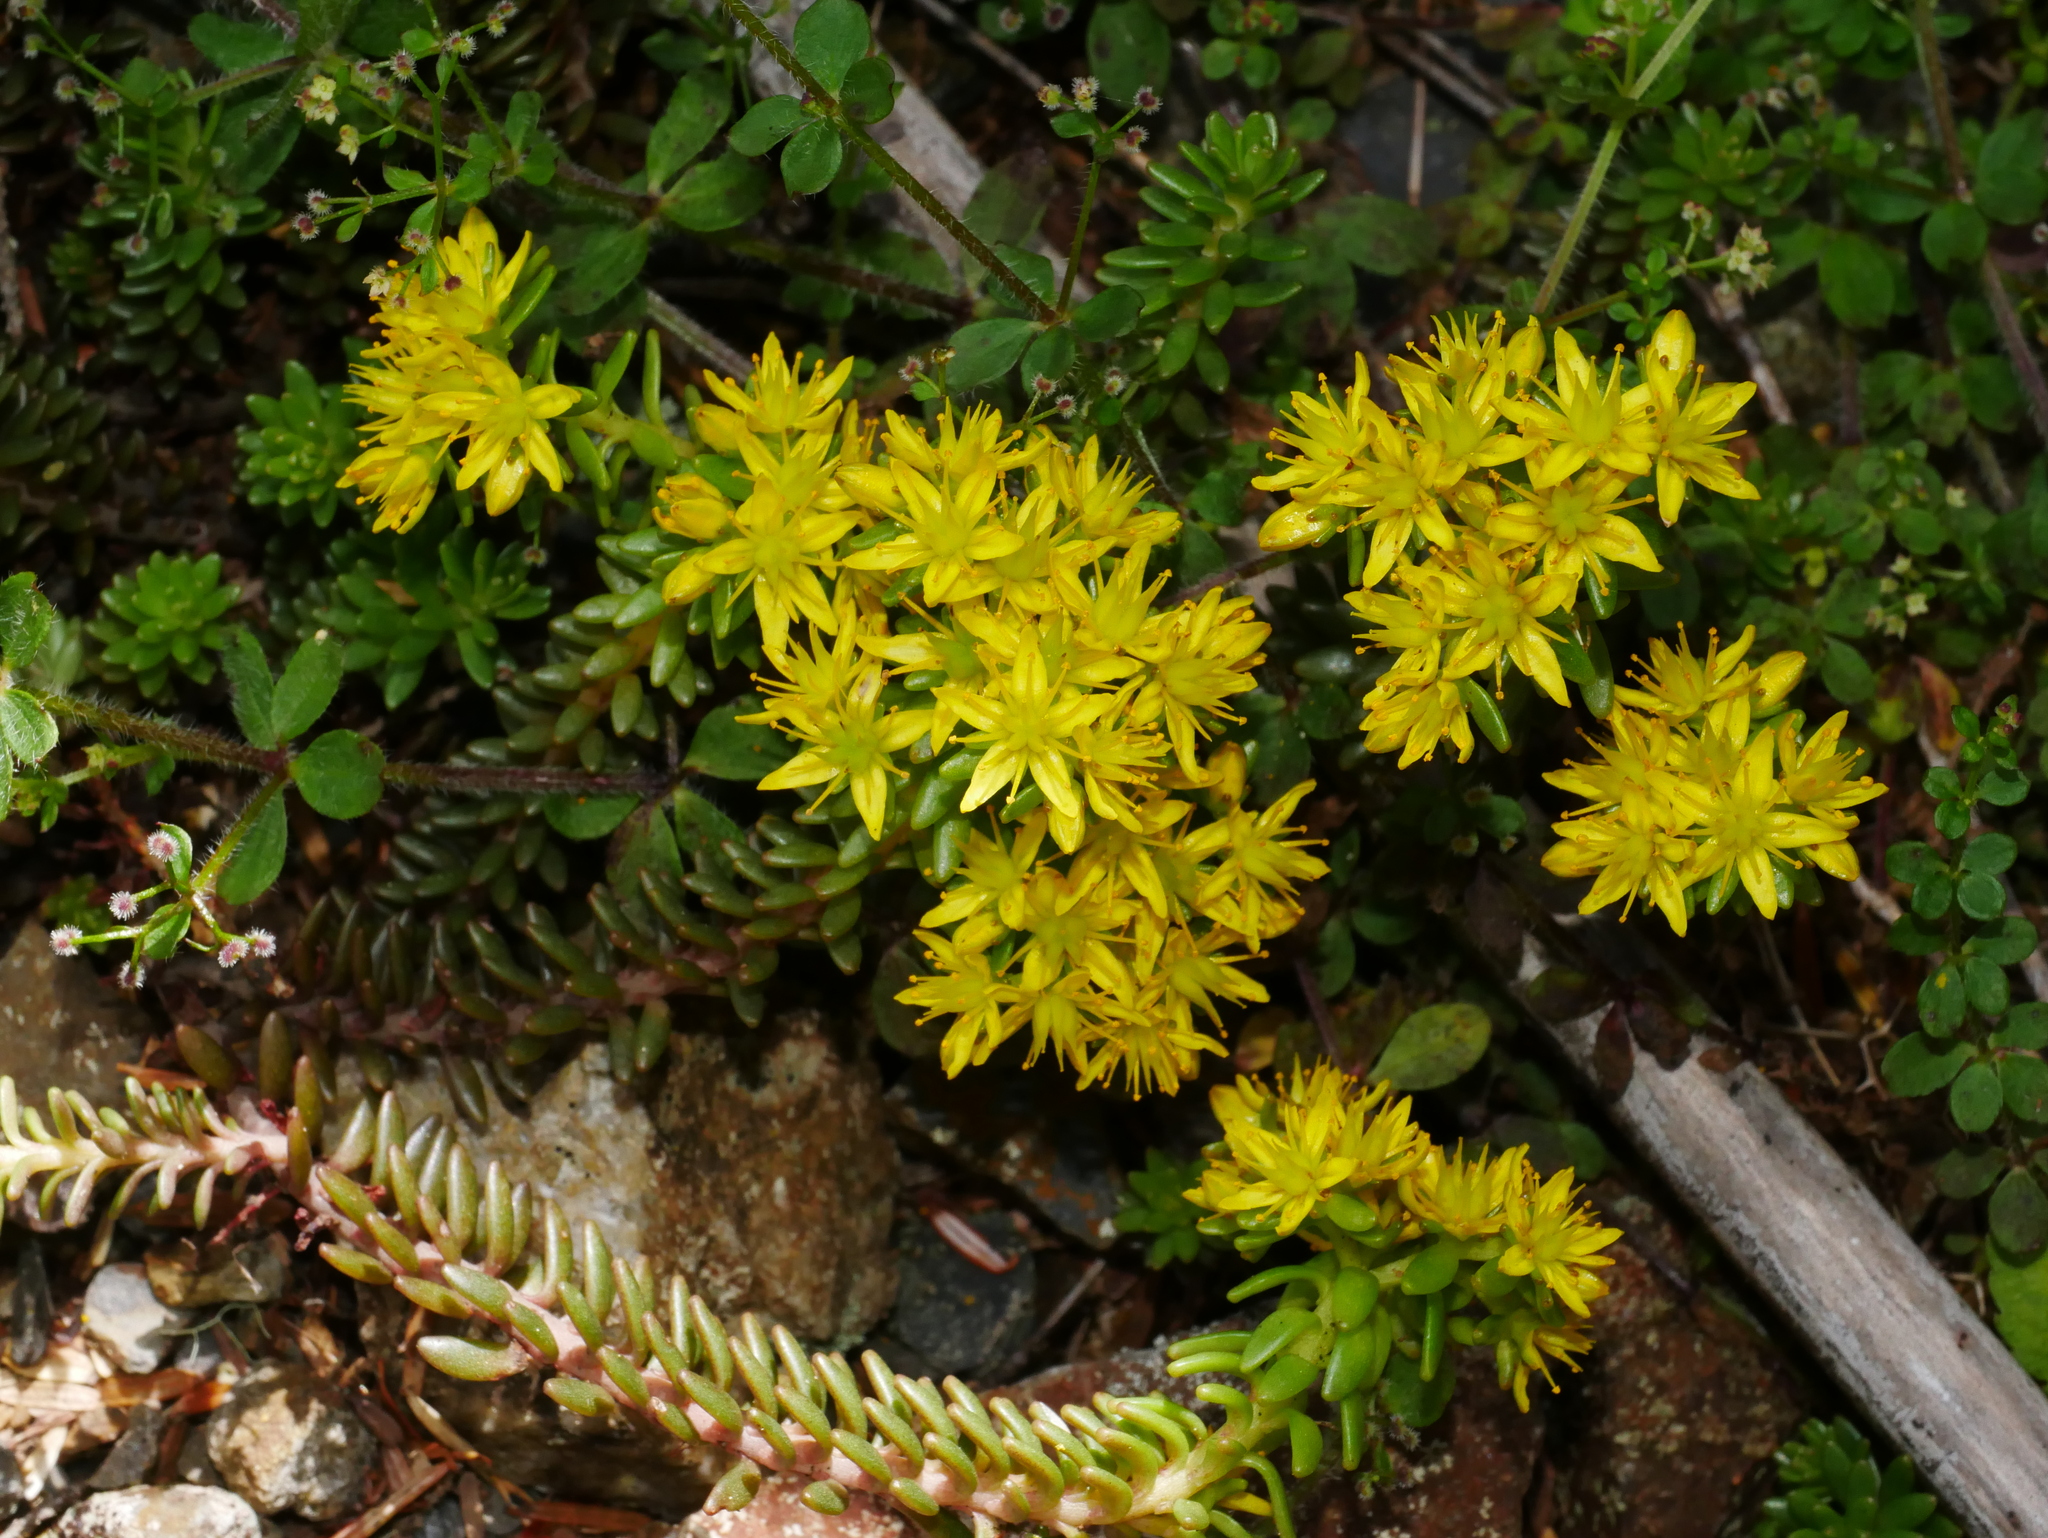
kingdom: Plantae
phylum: Tracheophyta
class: Magnoliopsida
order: Saxifragales
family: Crassulaceae
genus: Sedum
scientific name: Sedum morrisonense
